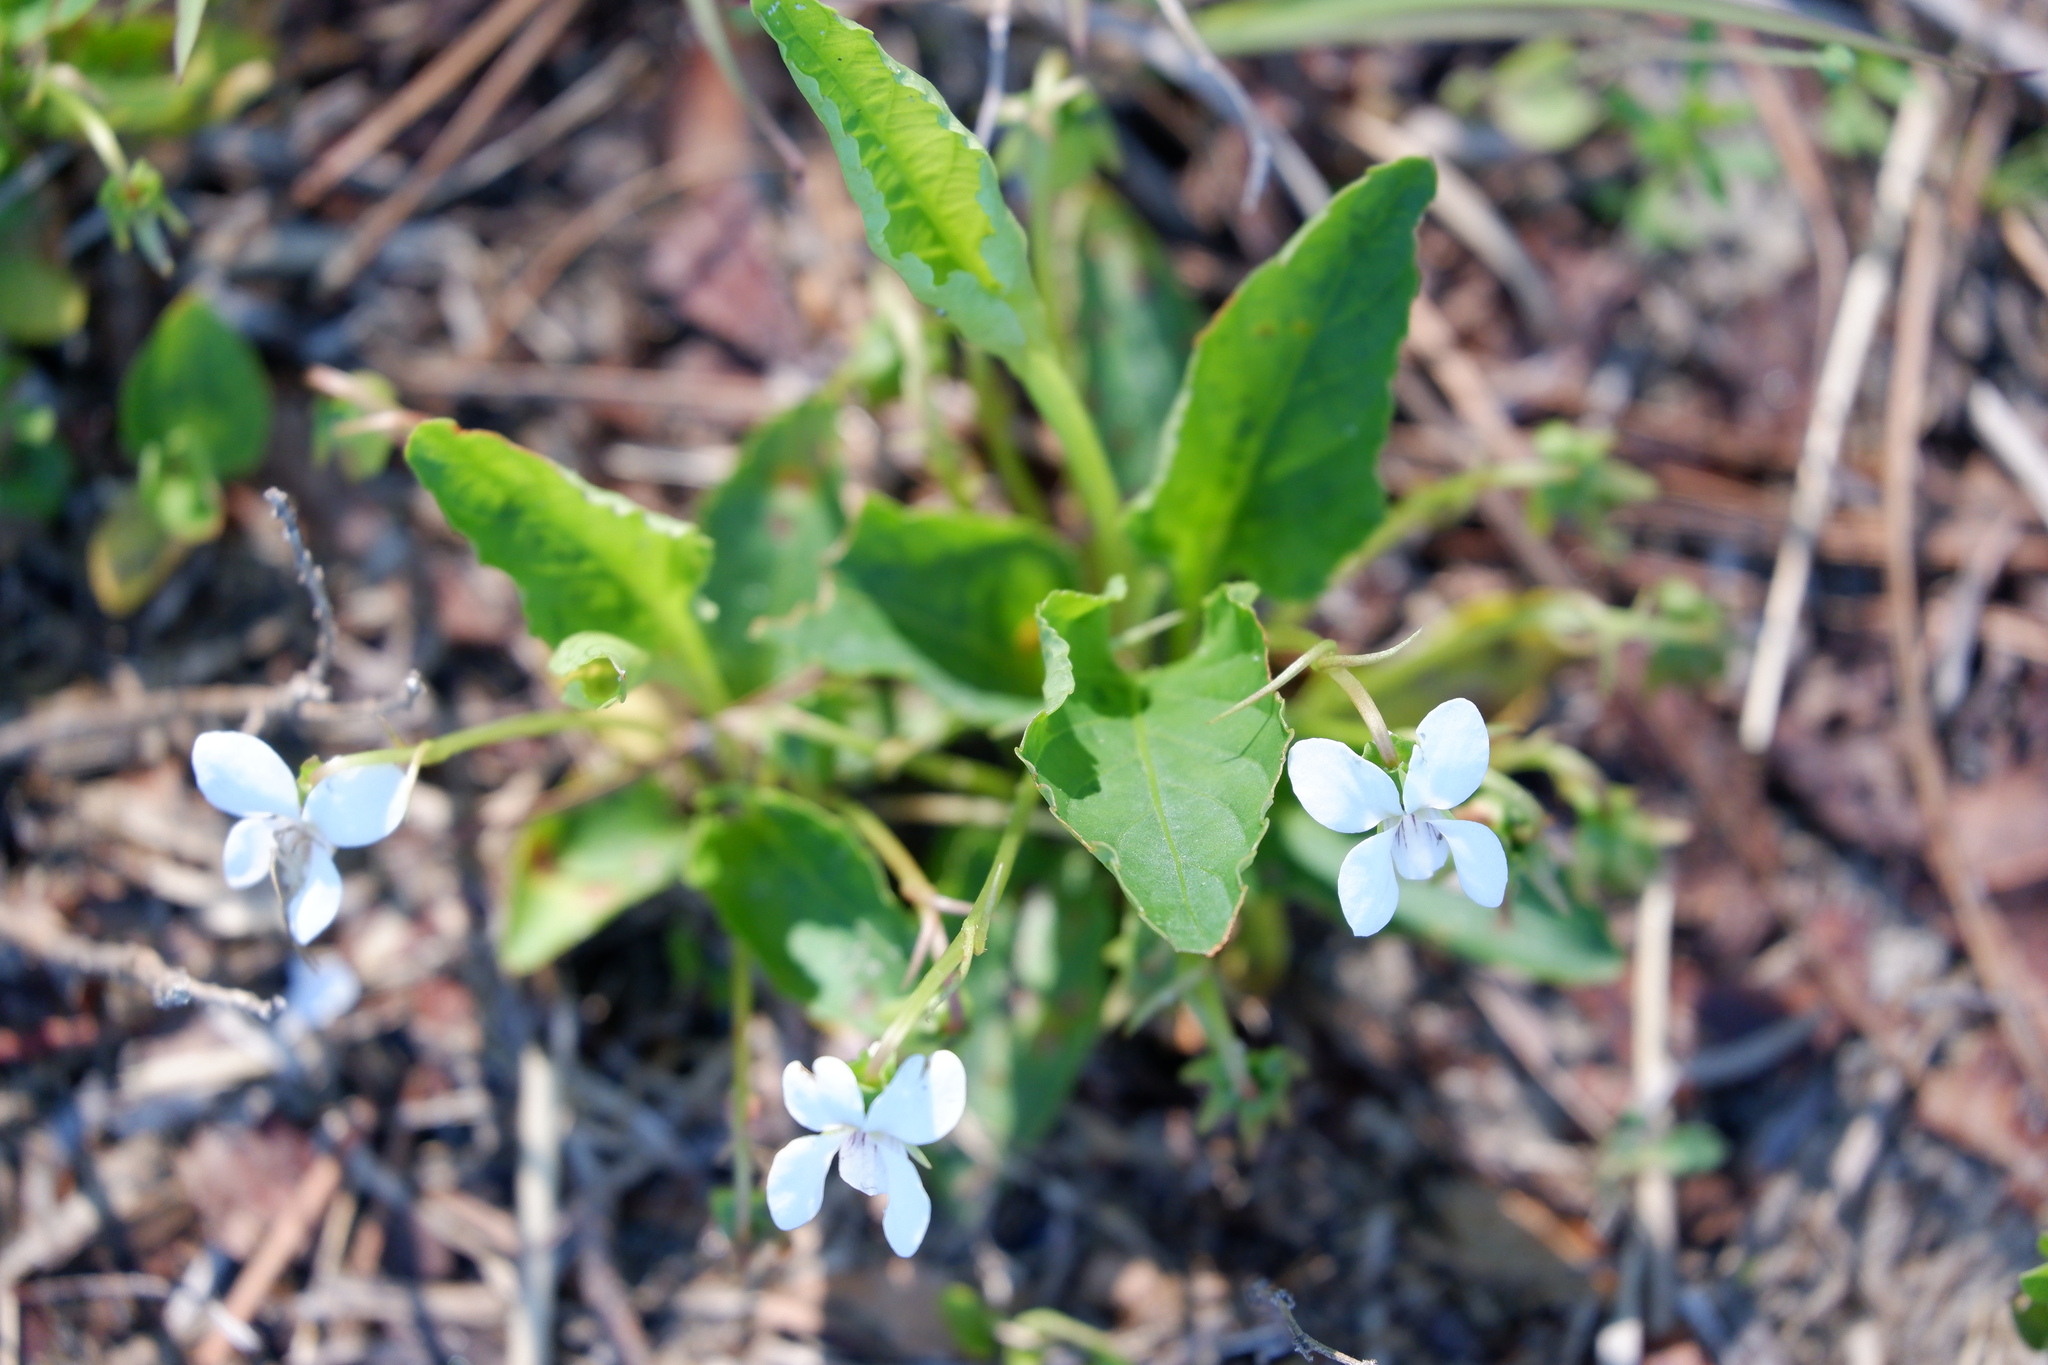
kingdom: Plantae
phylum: Tracheophyta
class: Magnoliopsida
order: Malpighiales
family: Violaceae
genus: Viola
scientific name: Viola primulifolia
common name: Primrose-leaf violet
